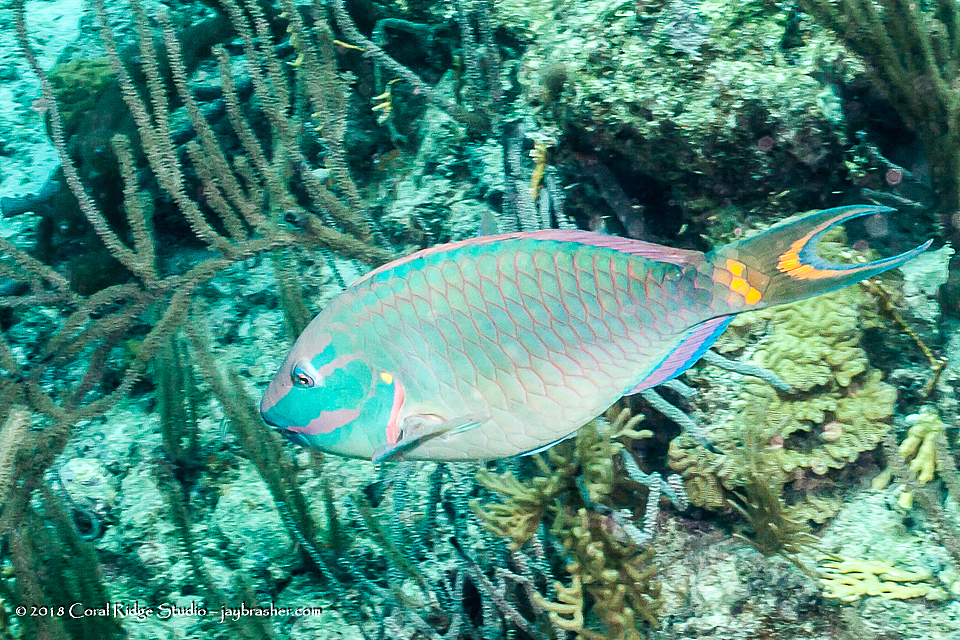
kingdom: Animalia
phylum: Chordata
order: Perciformes
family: Scaridae
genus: Sparisoma
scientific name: Sparisoma viride
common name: Stoplight parrotfish
